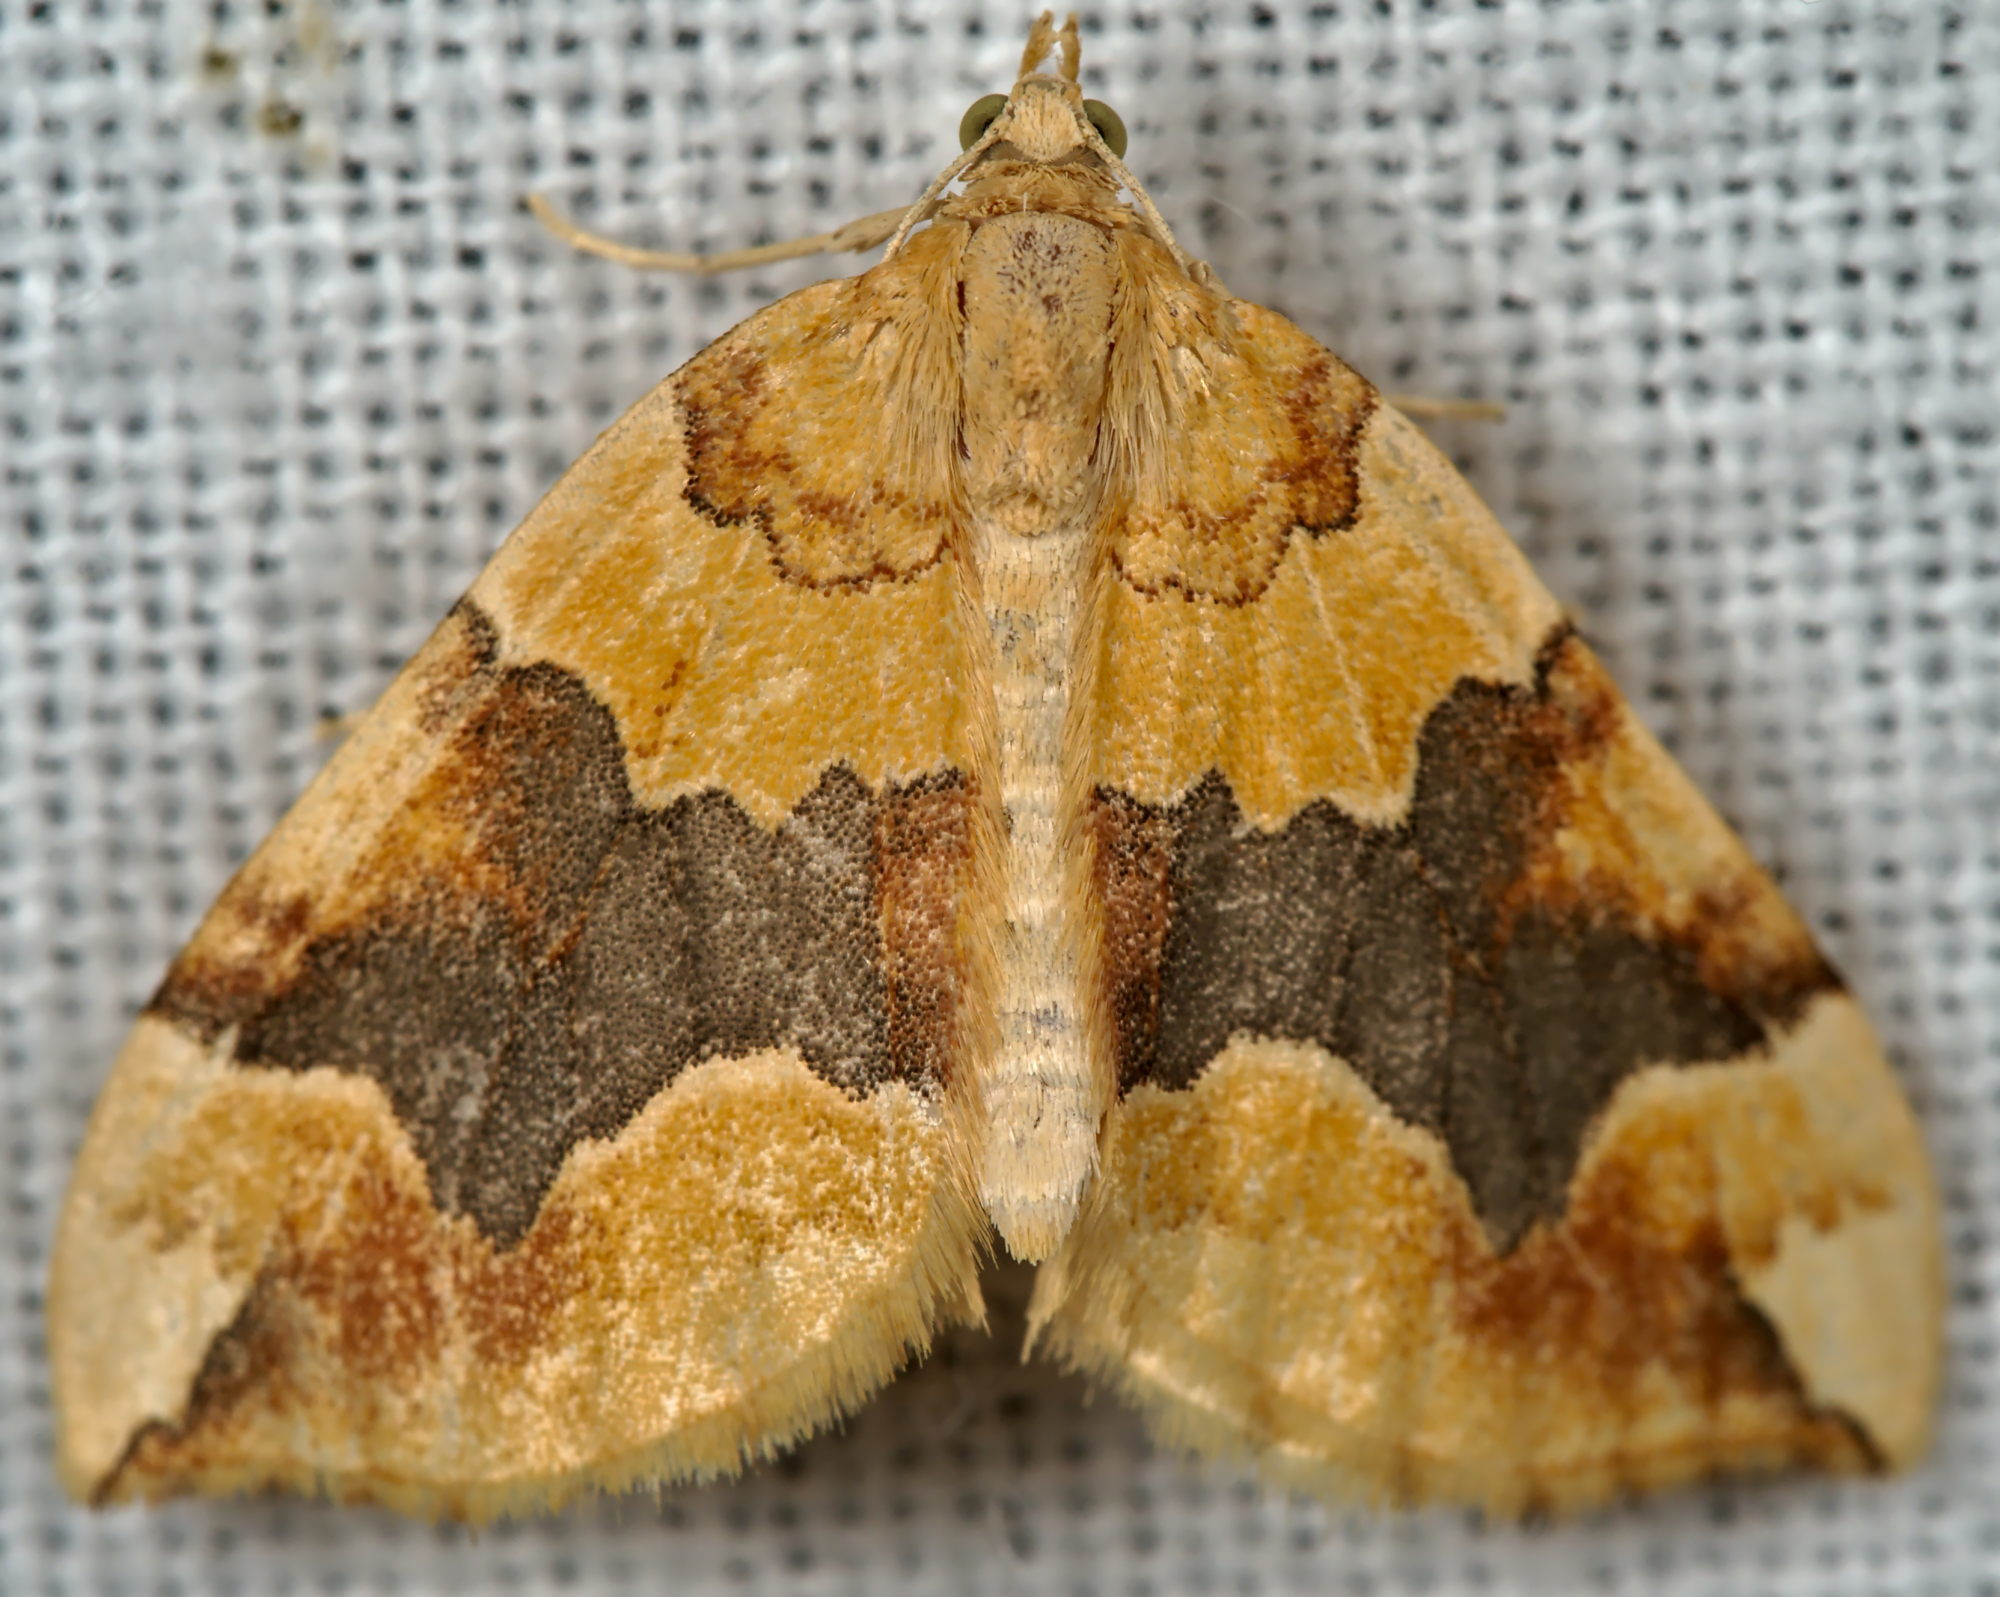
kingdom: Animalia
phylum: Arthropoda
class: Insecta
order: Lepidoptera
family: Geometridae
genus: Cidaria
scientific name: Cidaria fulvata
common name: Barred yellow
